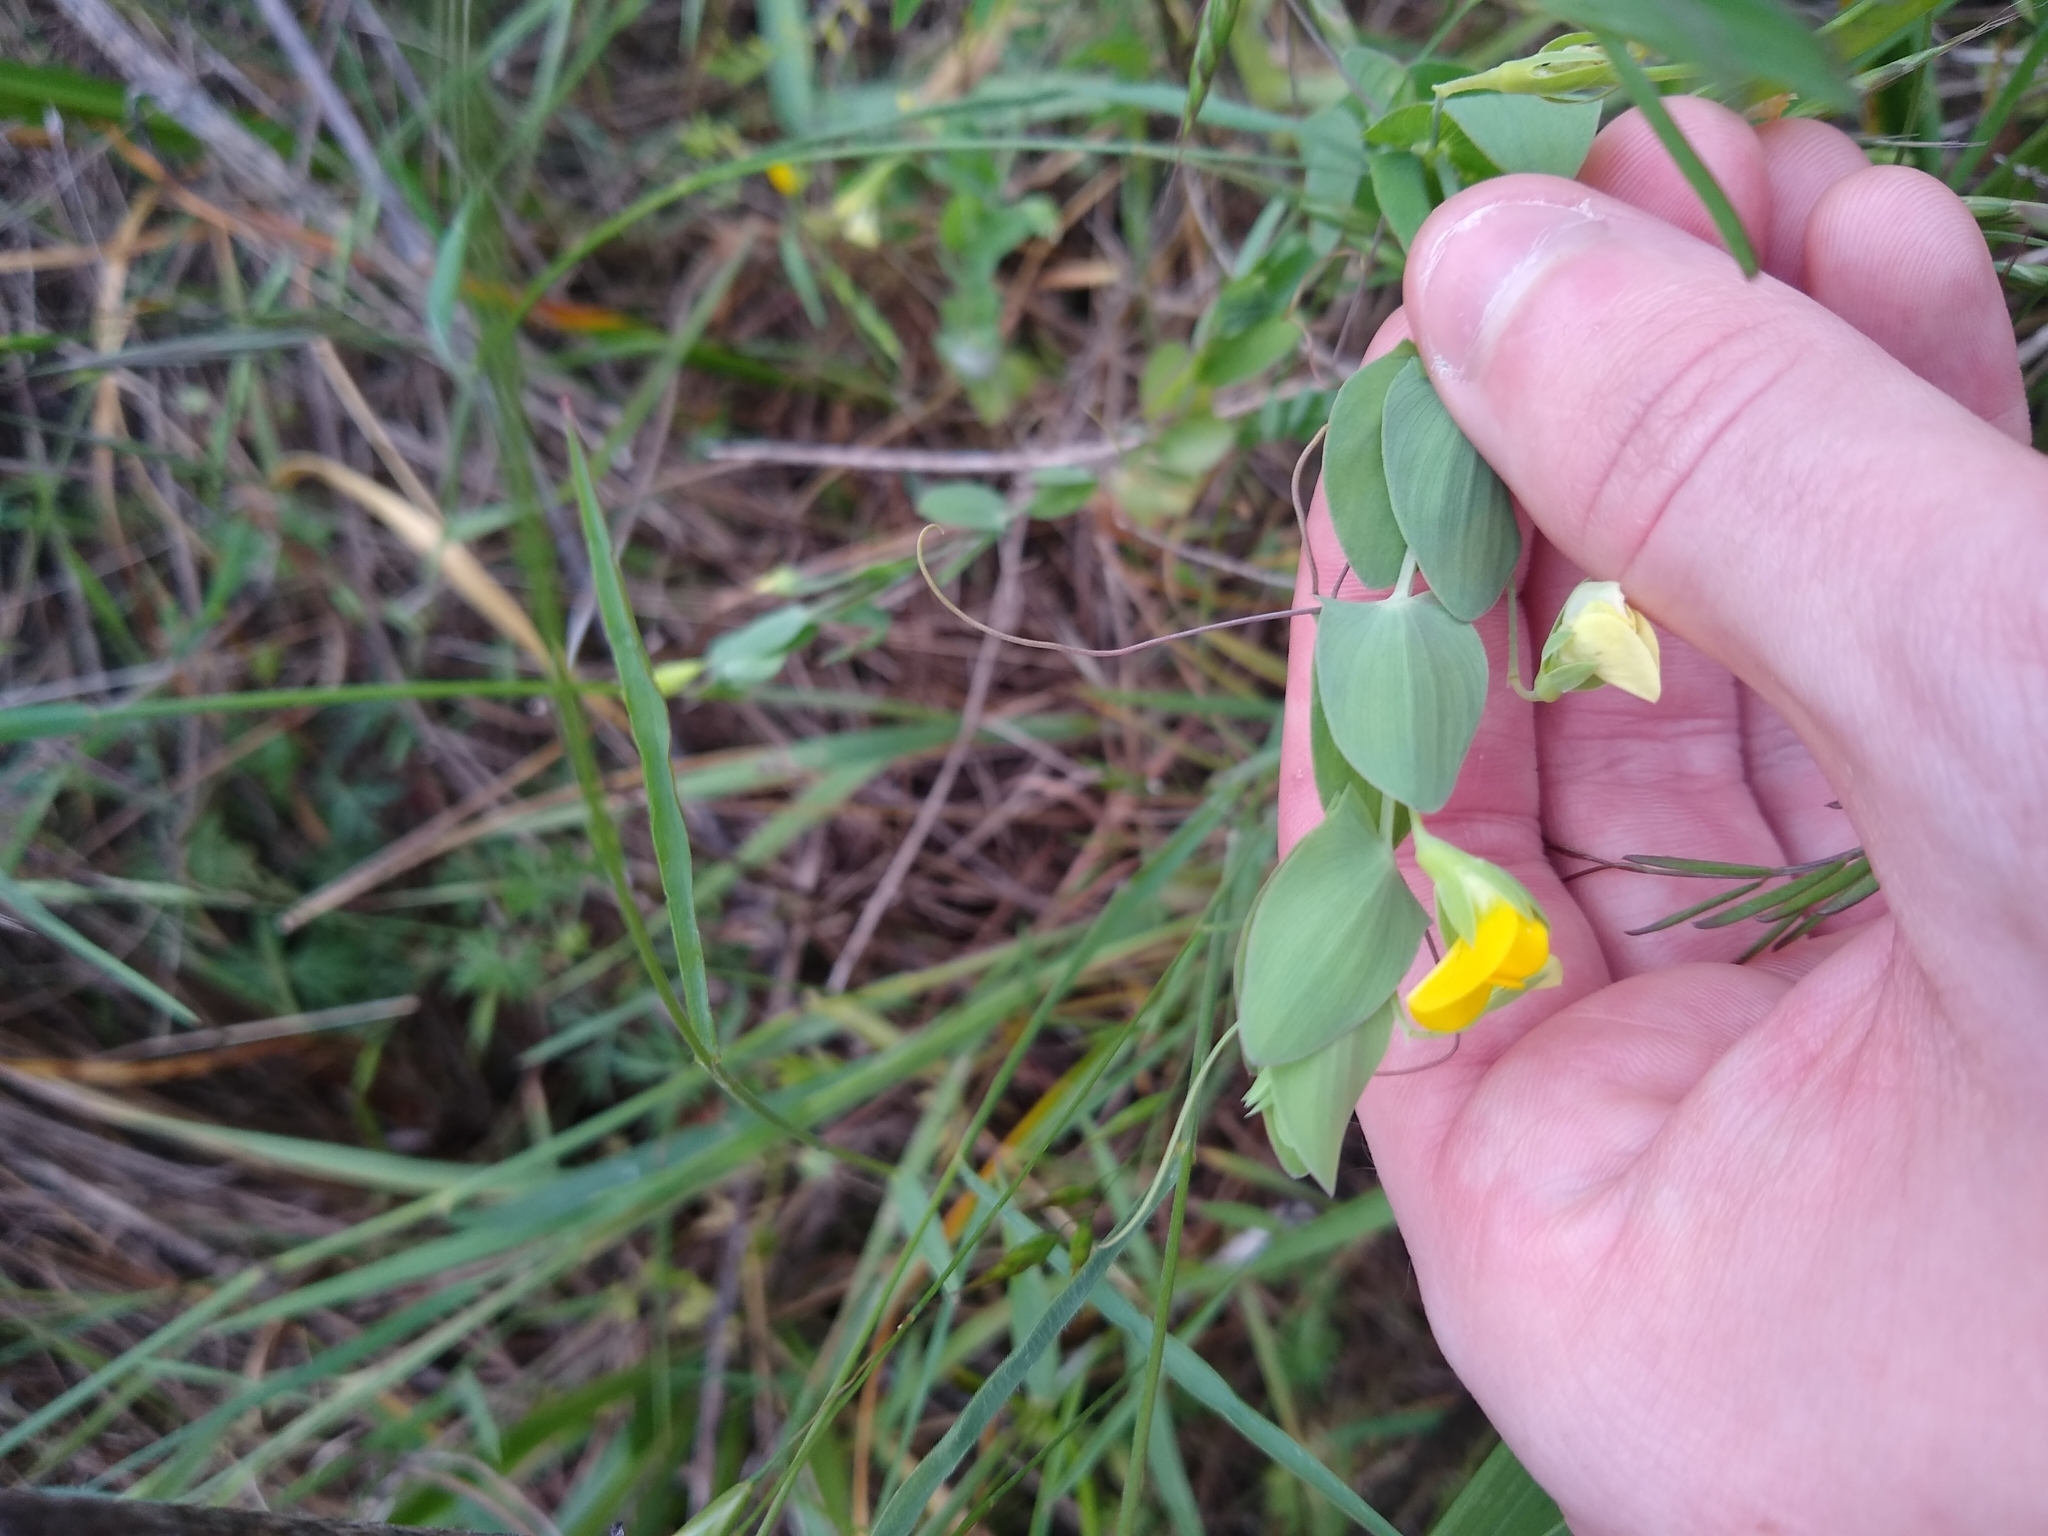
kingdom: Plantae
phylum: Tracheophyta
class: Magnoliopsida
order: Fabales
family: Fabaceae
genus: Lathyrus
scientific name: Lathyrus aphaca
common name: Yellow vetchling
